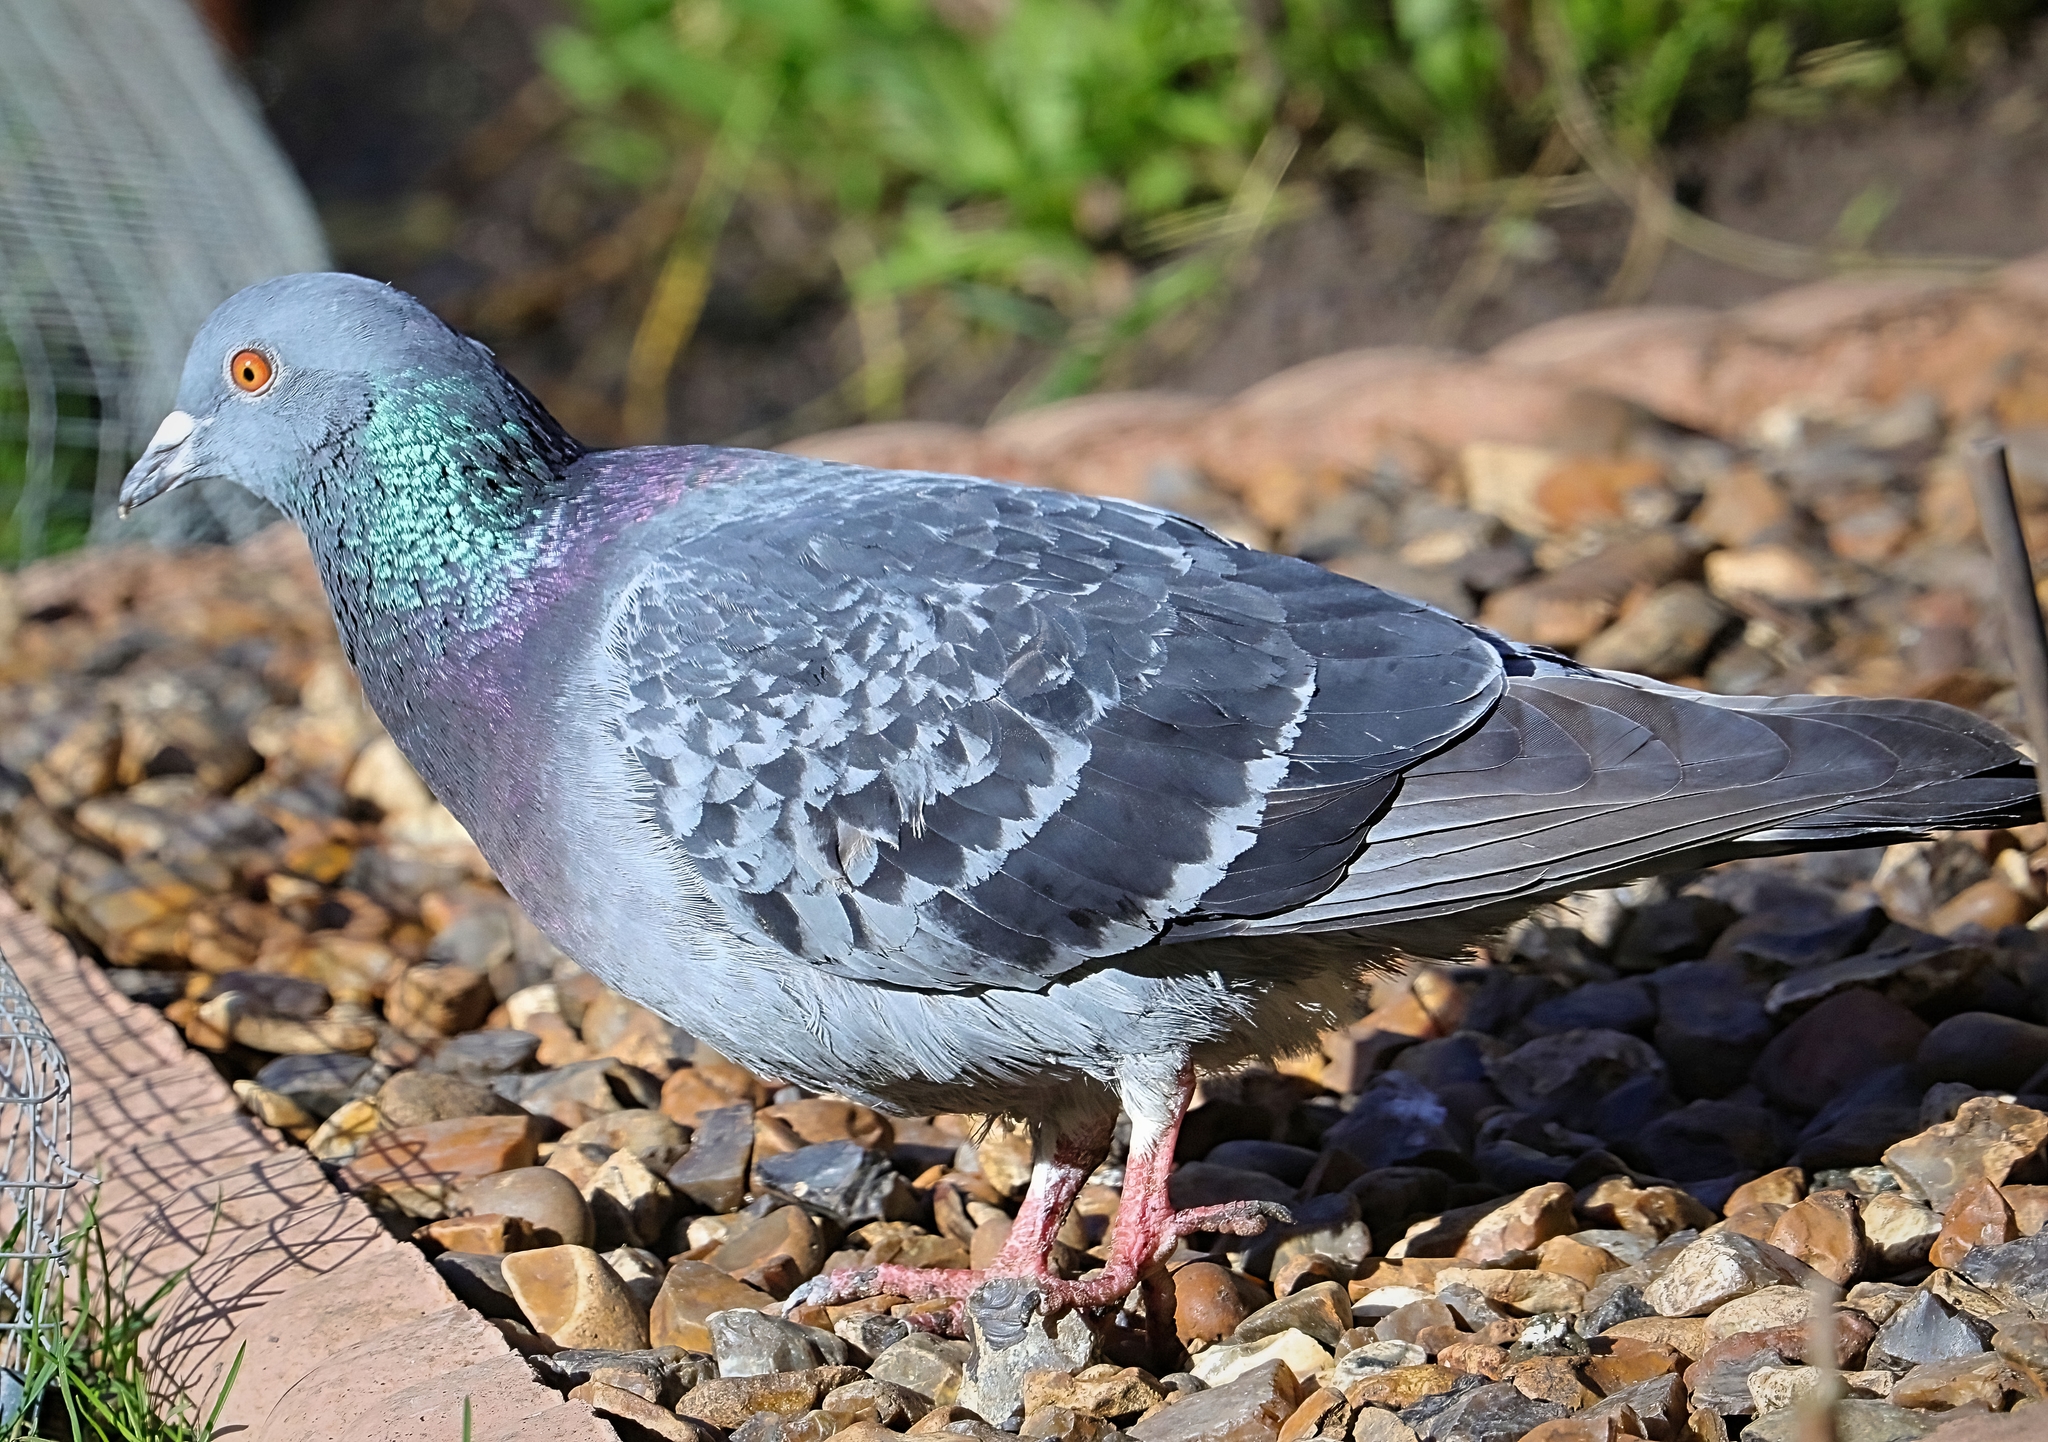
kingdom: Animalia
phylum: Chordata
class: Aves
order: Columbiformes
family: Columbidae
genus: Columba
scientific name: Columba livia
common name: Rock pigeon
